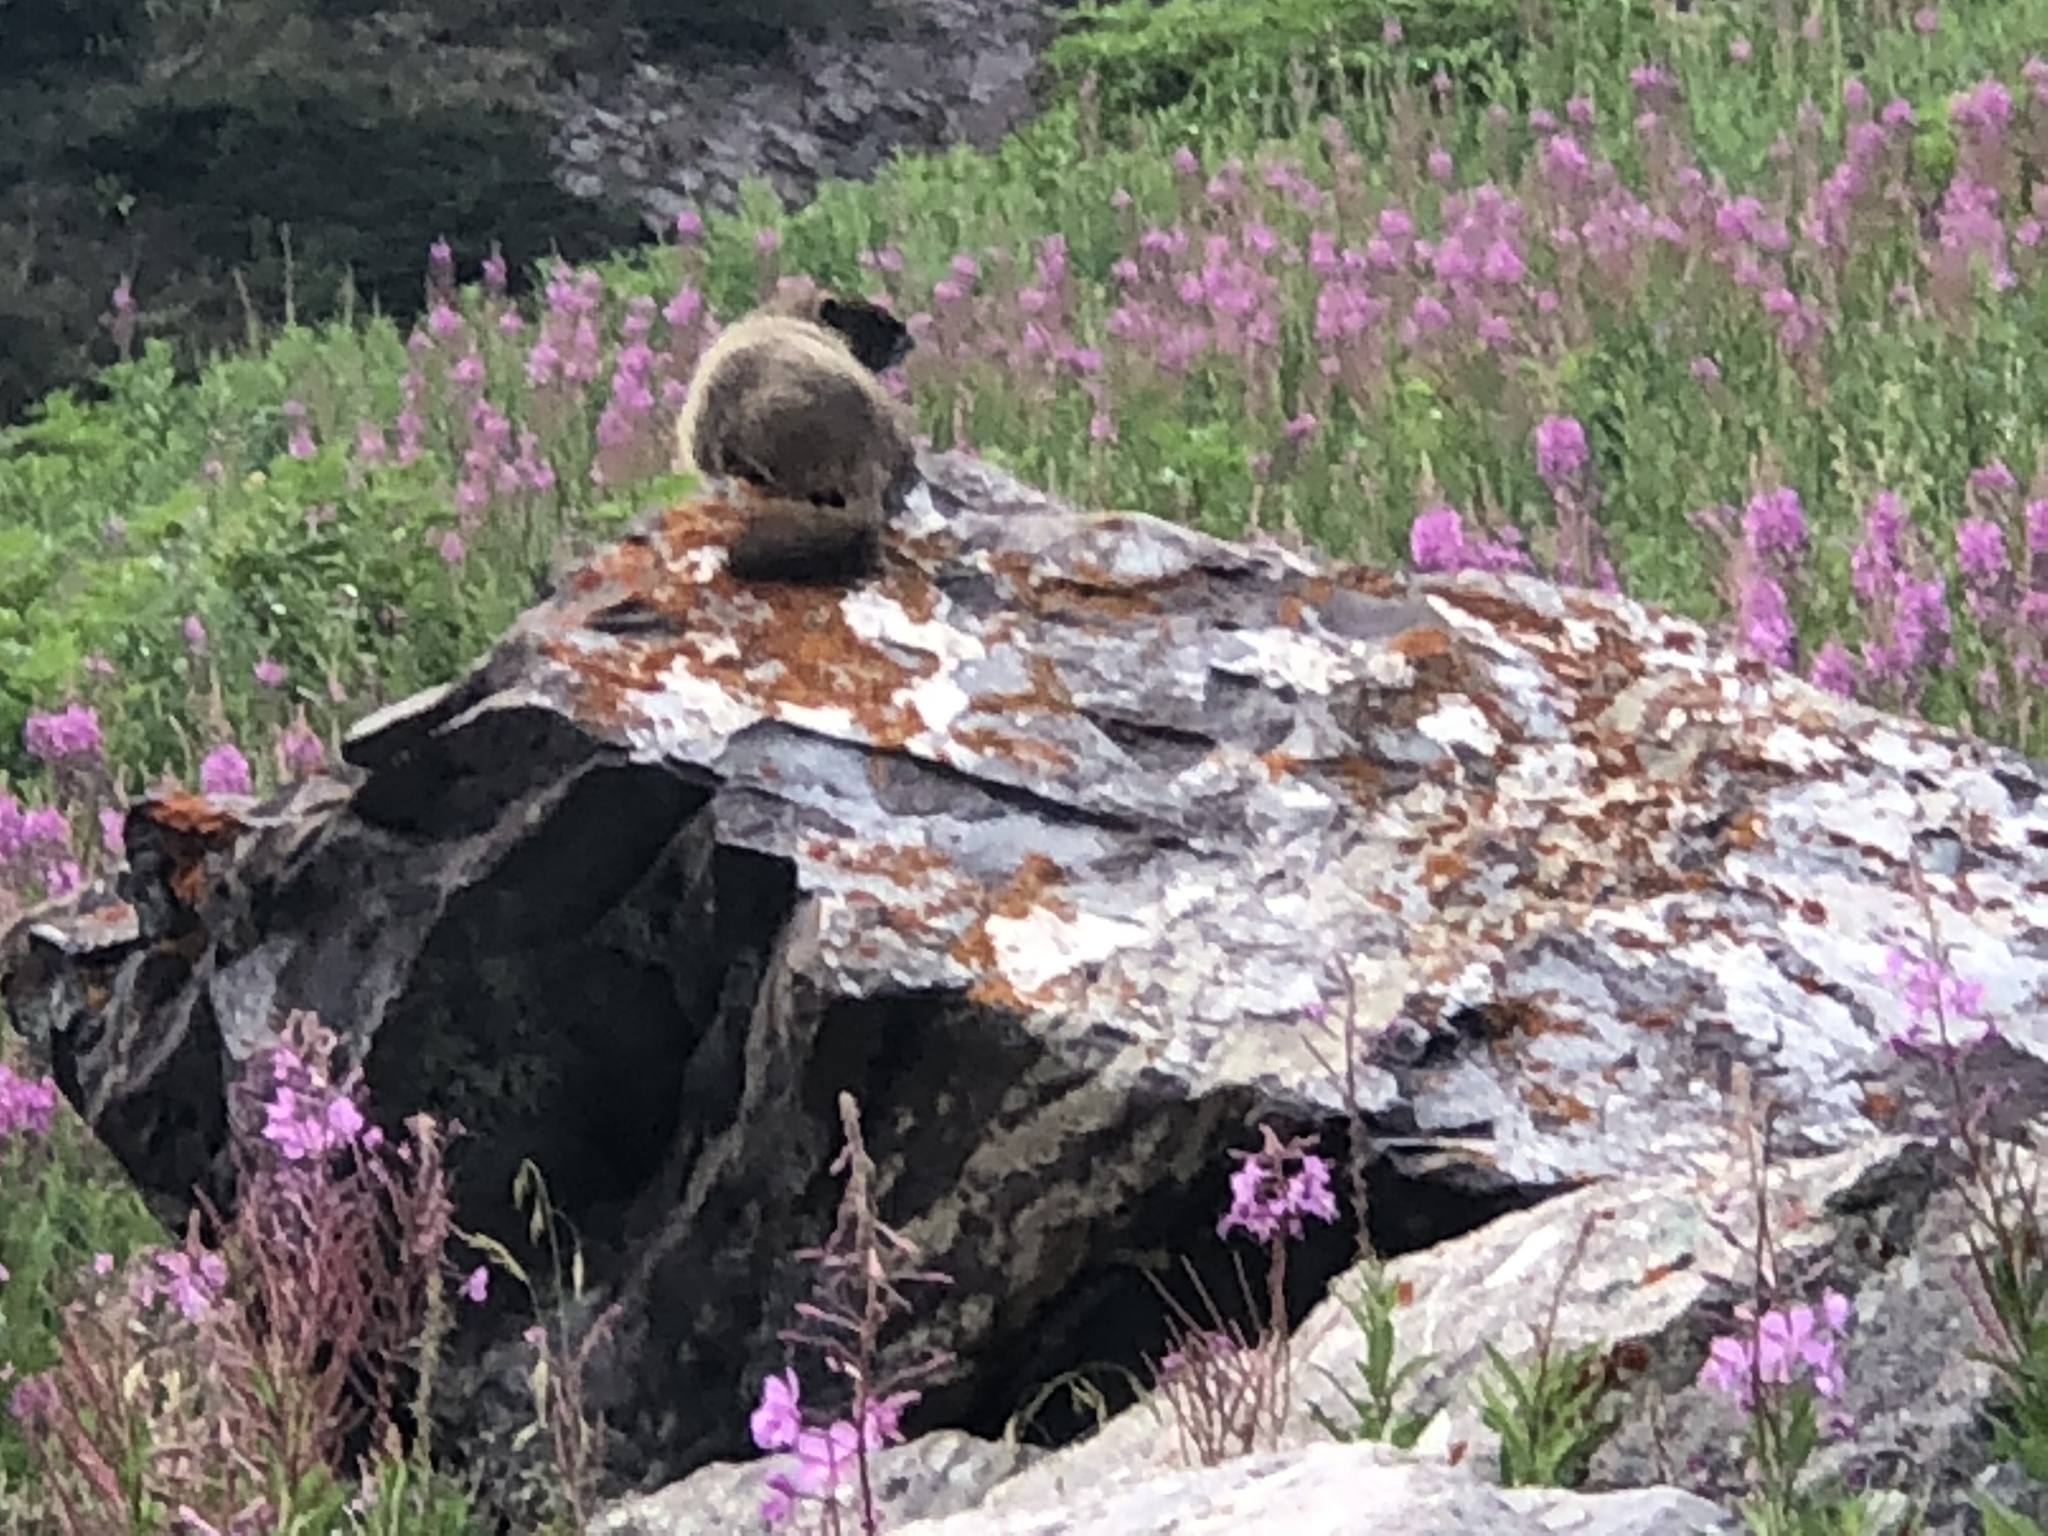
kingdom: Animalia
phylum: Chordata
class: Mammalia
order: Rodentia
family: Sciuridae
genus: Marmota
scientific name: Marmota flaviventris
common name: Yellow-bellied marmot
